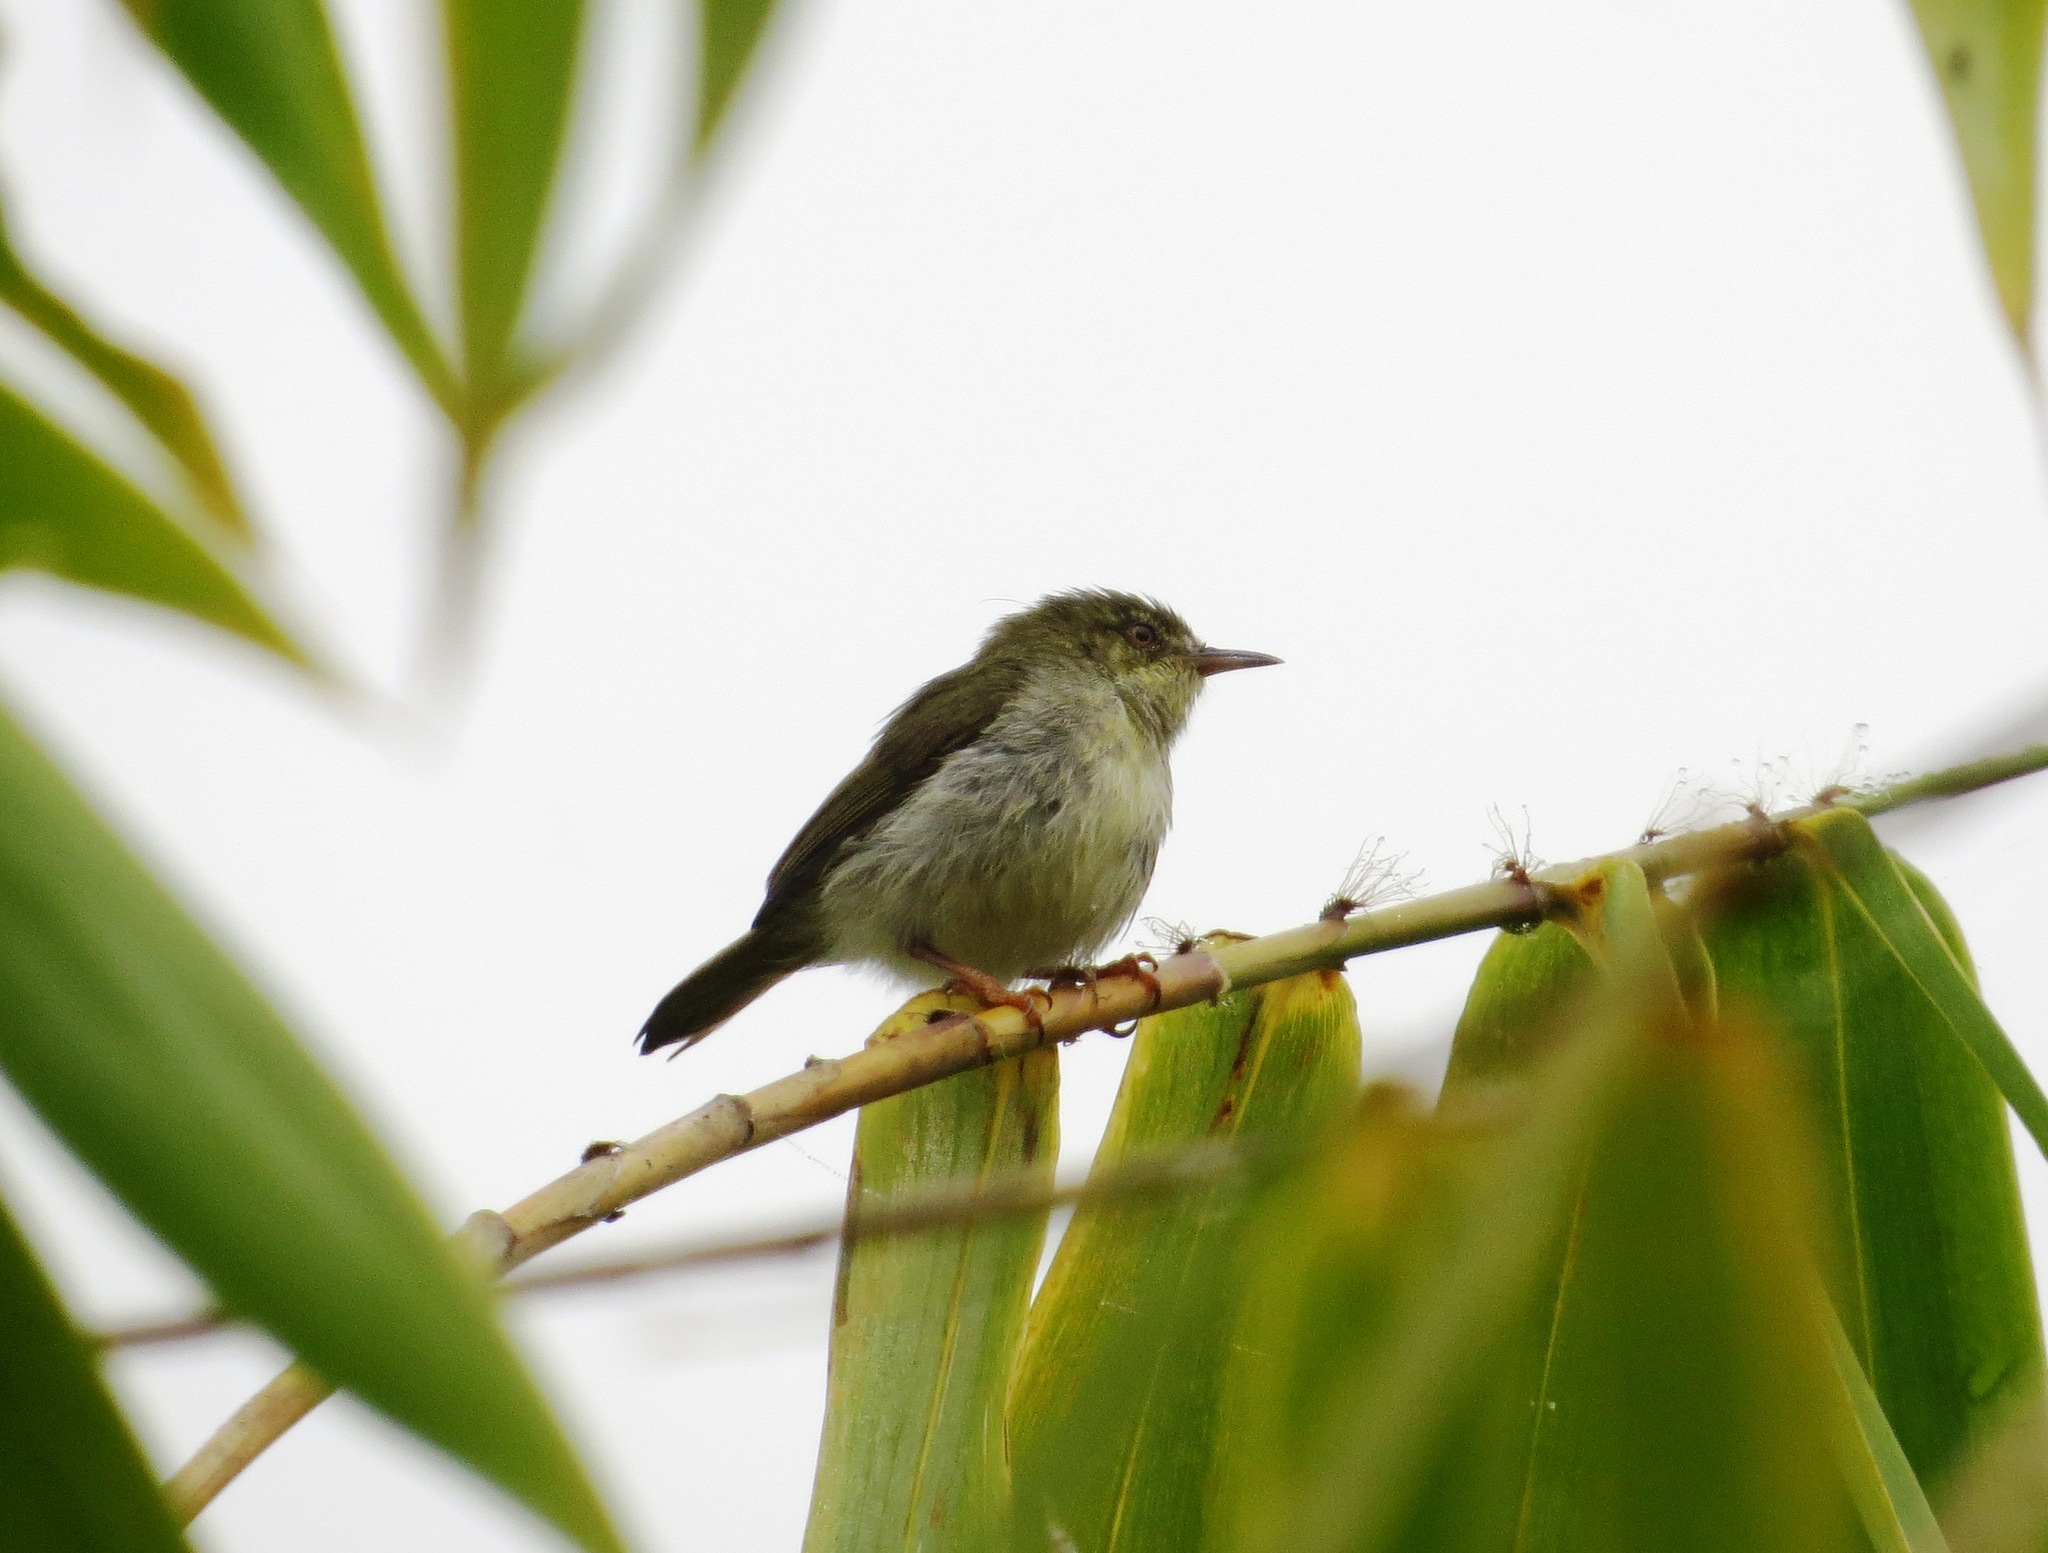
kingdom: Animalia
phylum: Chordata
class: Aves
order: Passeriformes
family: Cisticolidae
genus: Neomixis
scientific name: Neomixis viridis
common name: Green jery
